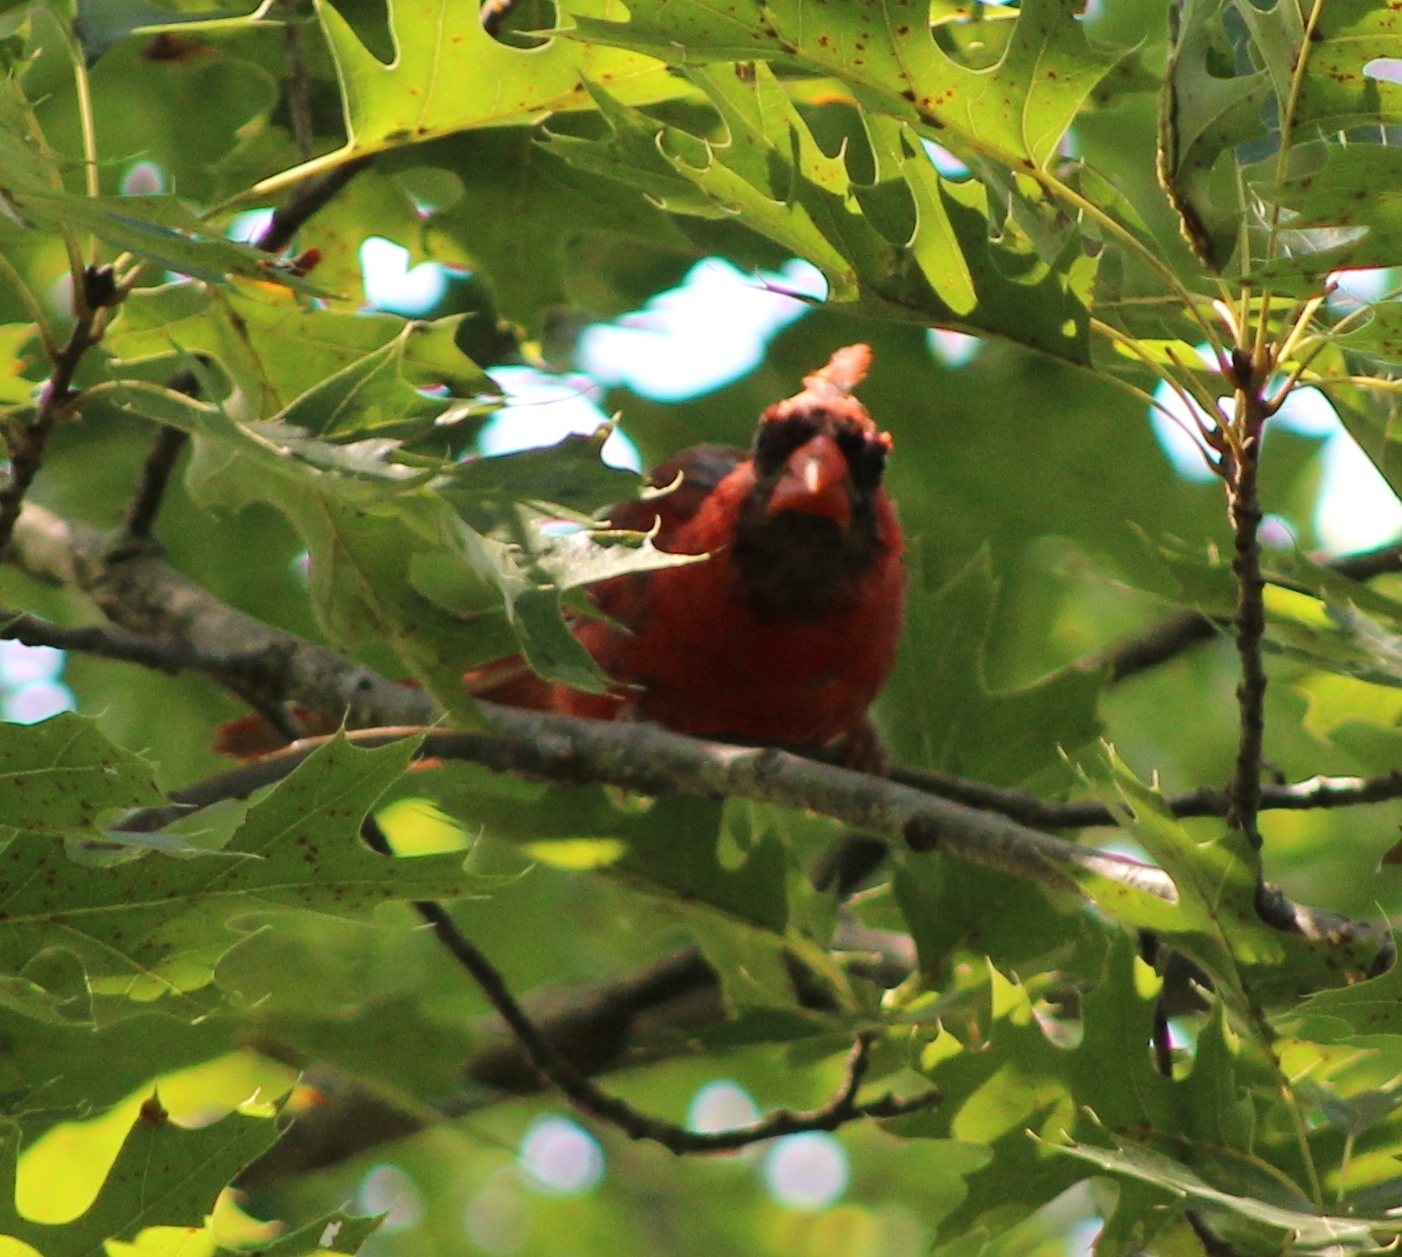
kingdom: Animalia
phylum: Chordata
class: Aves
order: Passeriformes
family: Cardinalidae
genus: Cardinalis
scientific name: Cardinalis cardinalis
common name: Northern cardinal
